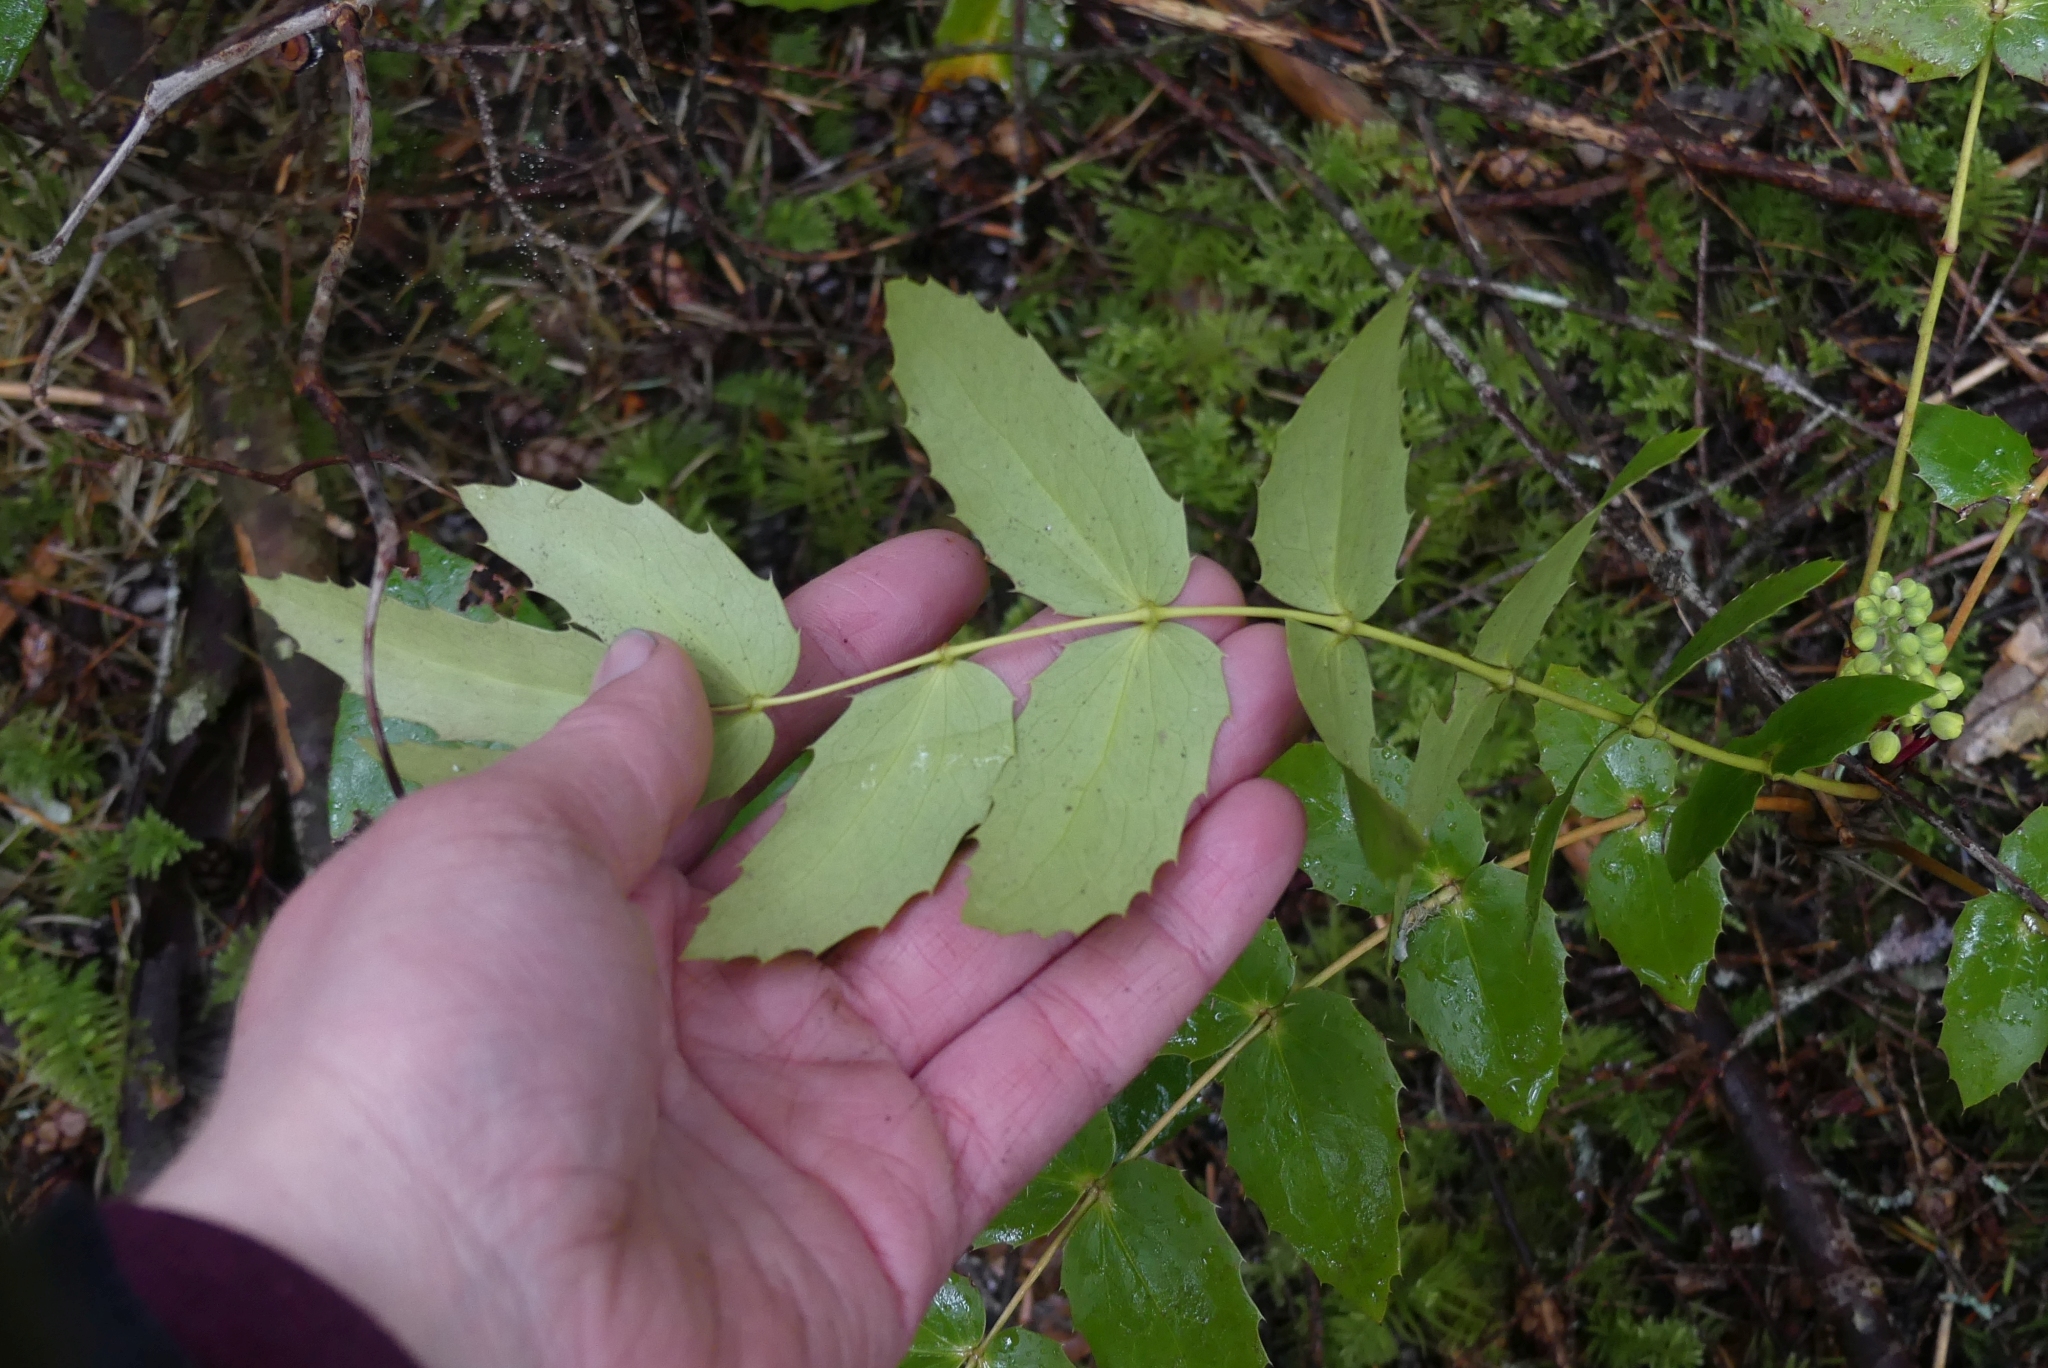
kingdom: Plantae
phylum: Tracheophyta
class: Magnoliopsida
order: Ranunculales
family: Berberidaceae
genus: Mahonia
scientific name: Mahonia nervosa
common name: Cascade oregon-grape
